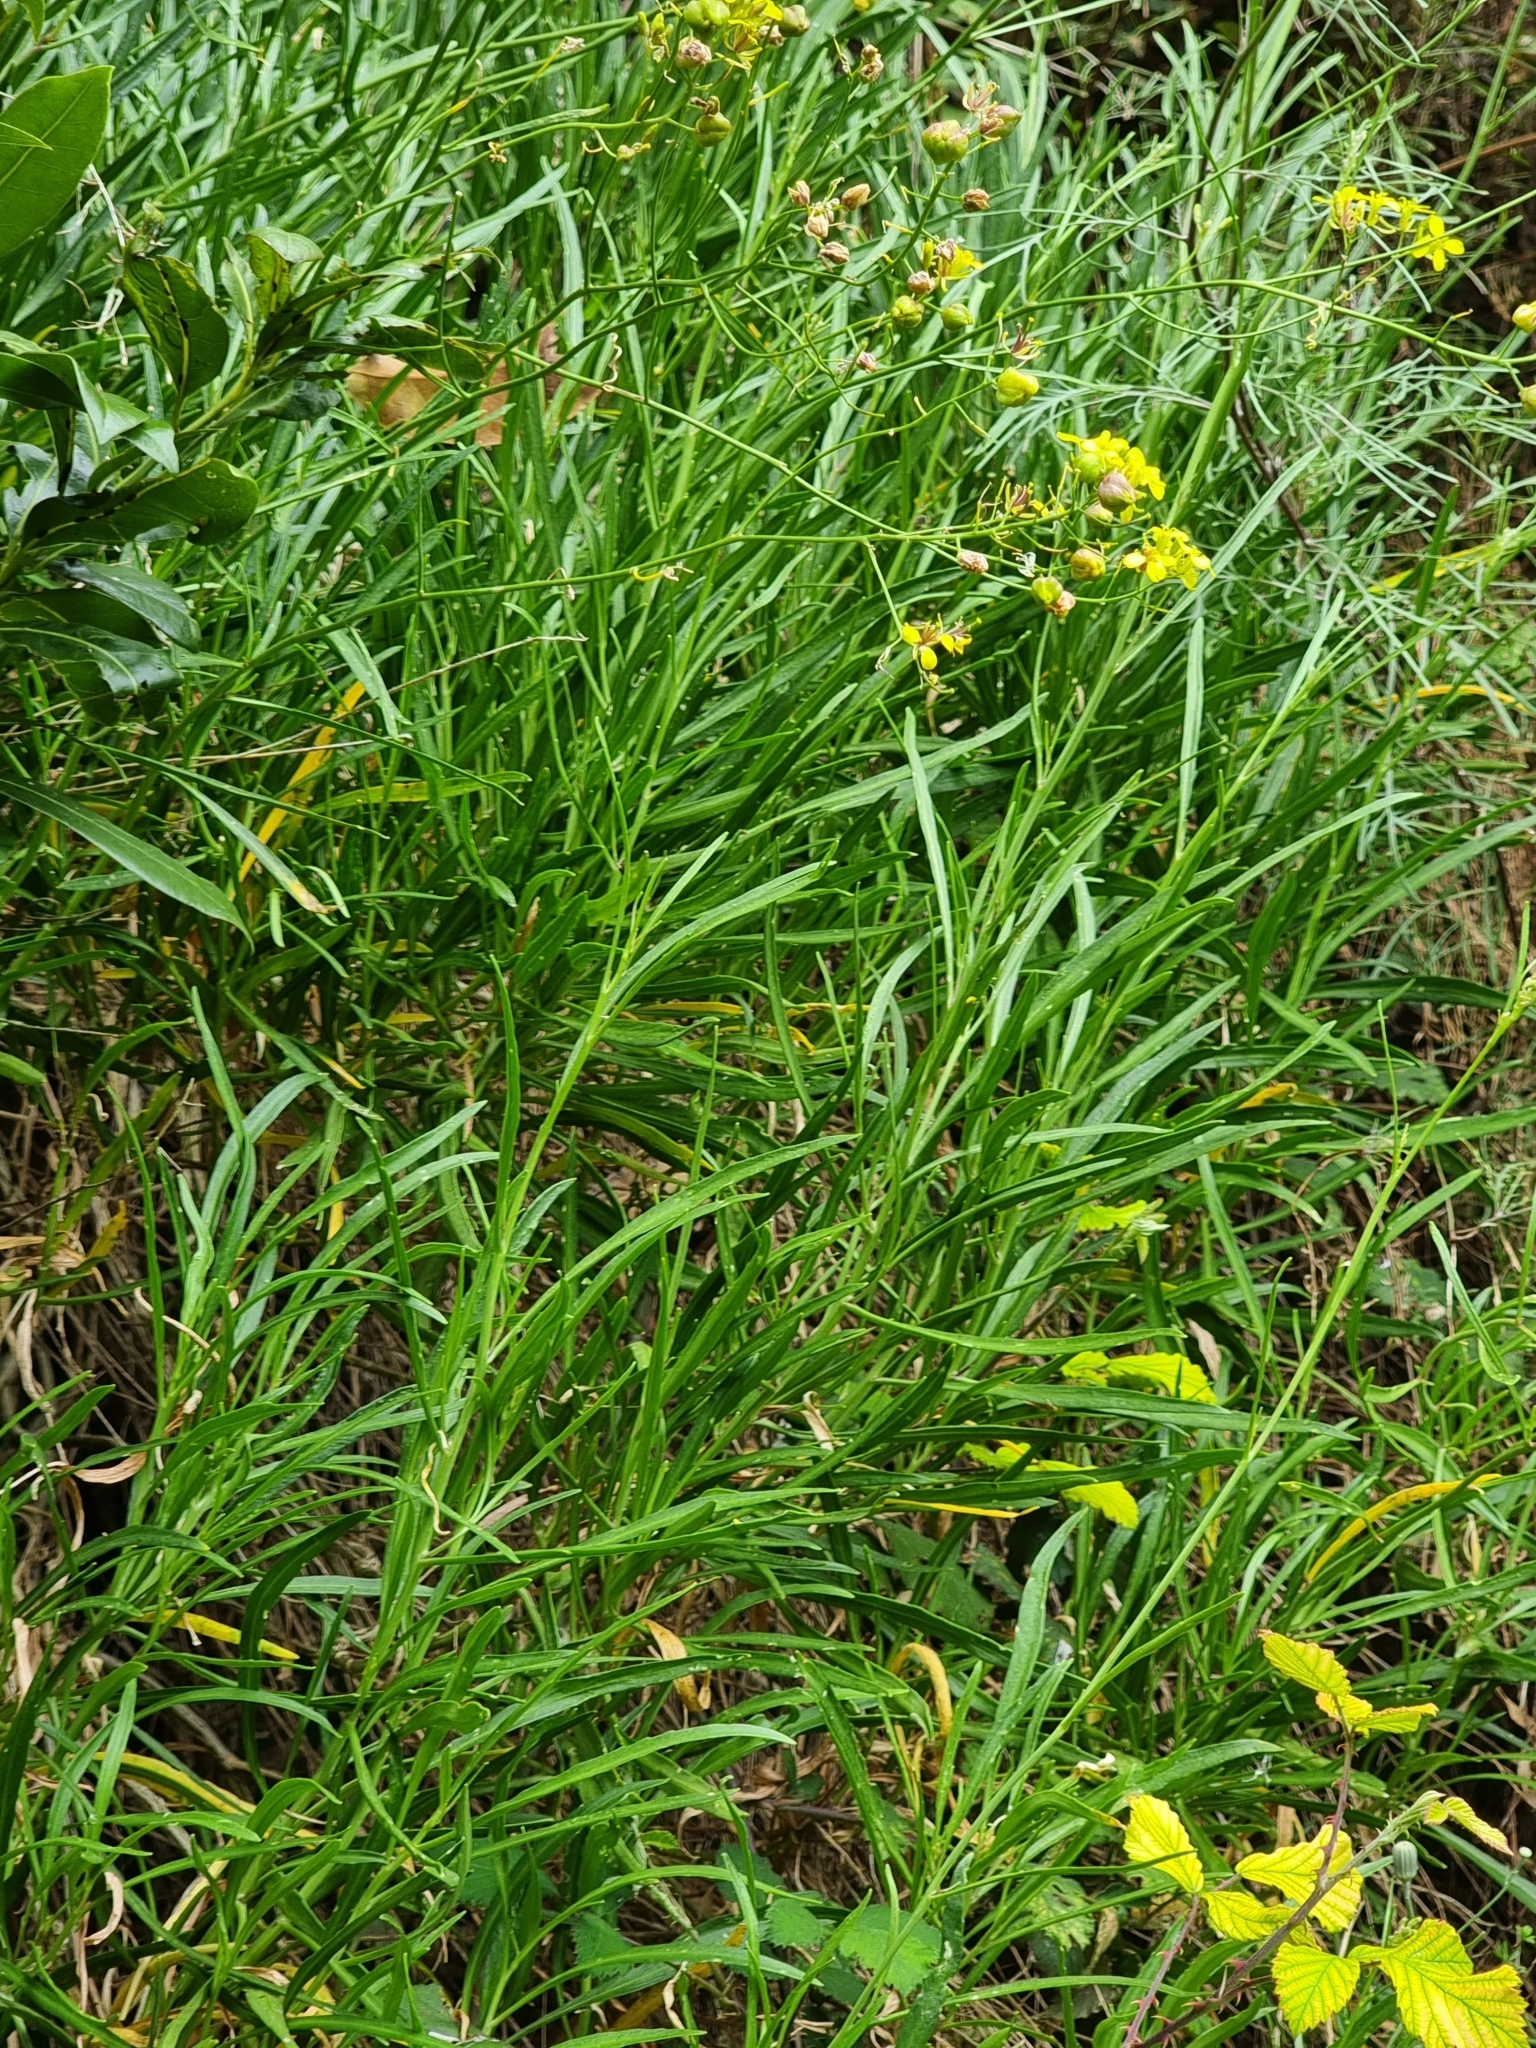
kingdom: Plantae
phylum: Tracheophyta
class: Magnoliopsida
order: Brassicales
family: Brassicaceae
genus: Sinapidendron
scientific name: Sinapidendron angustifolium
